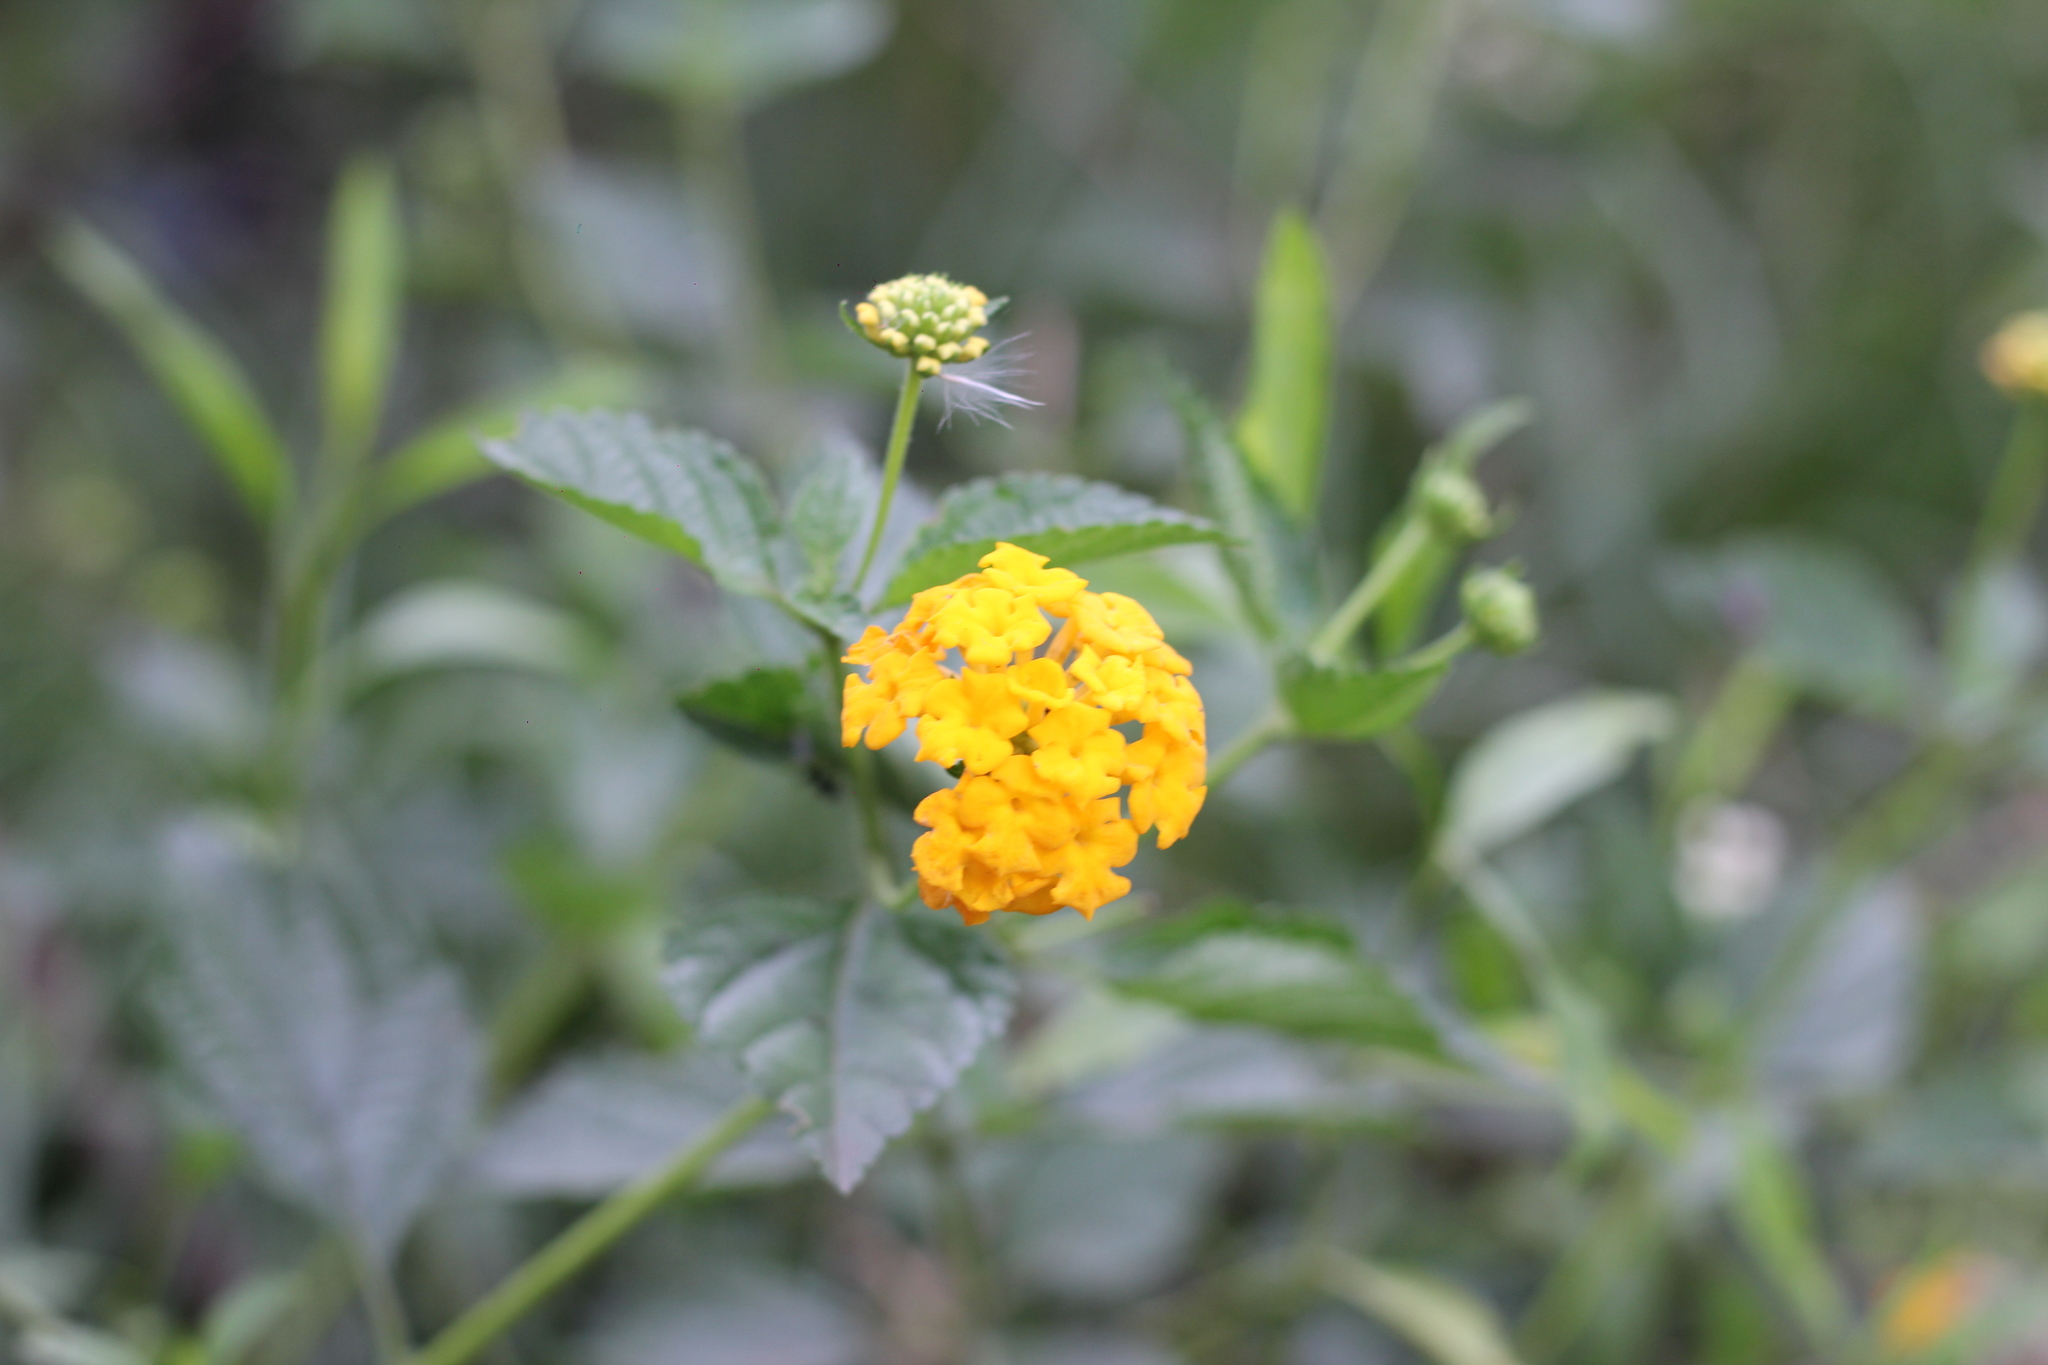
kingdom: Plantae
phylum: Tracheophyta
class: Magnoliopsida
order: Lamiales
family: Verbenaceae
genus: Lantana
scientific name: Lantana camara
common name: Lantana
